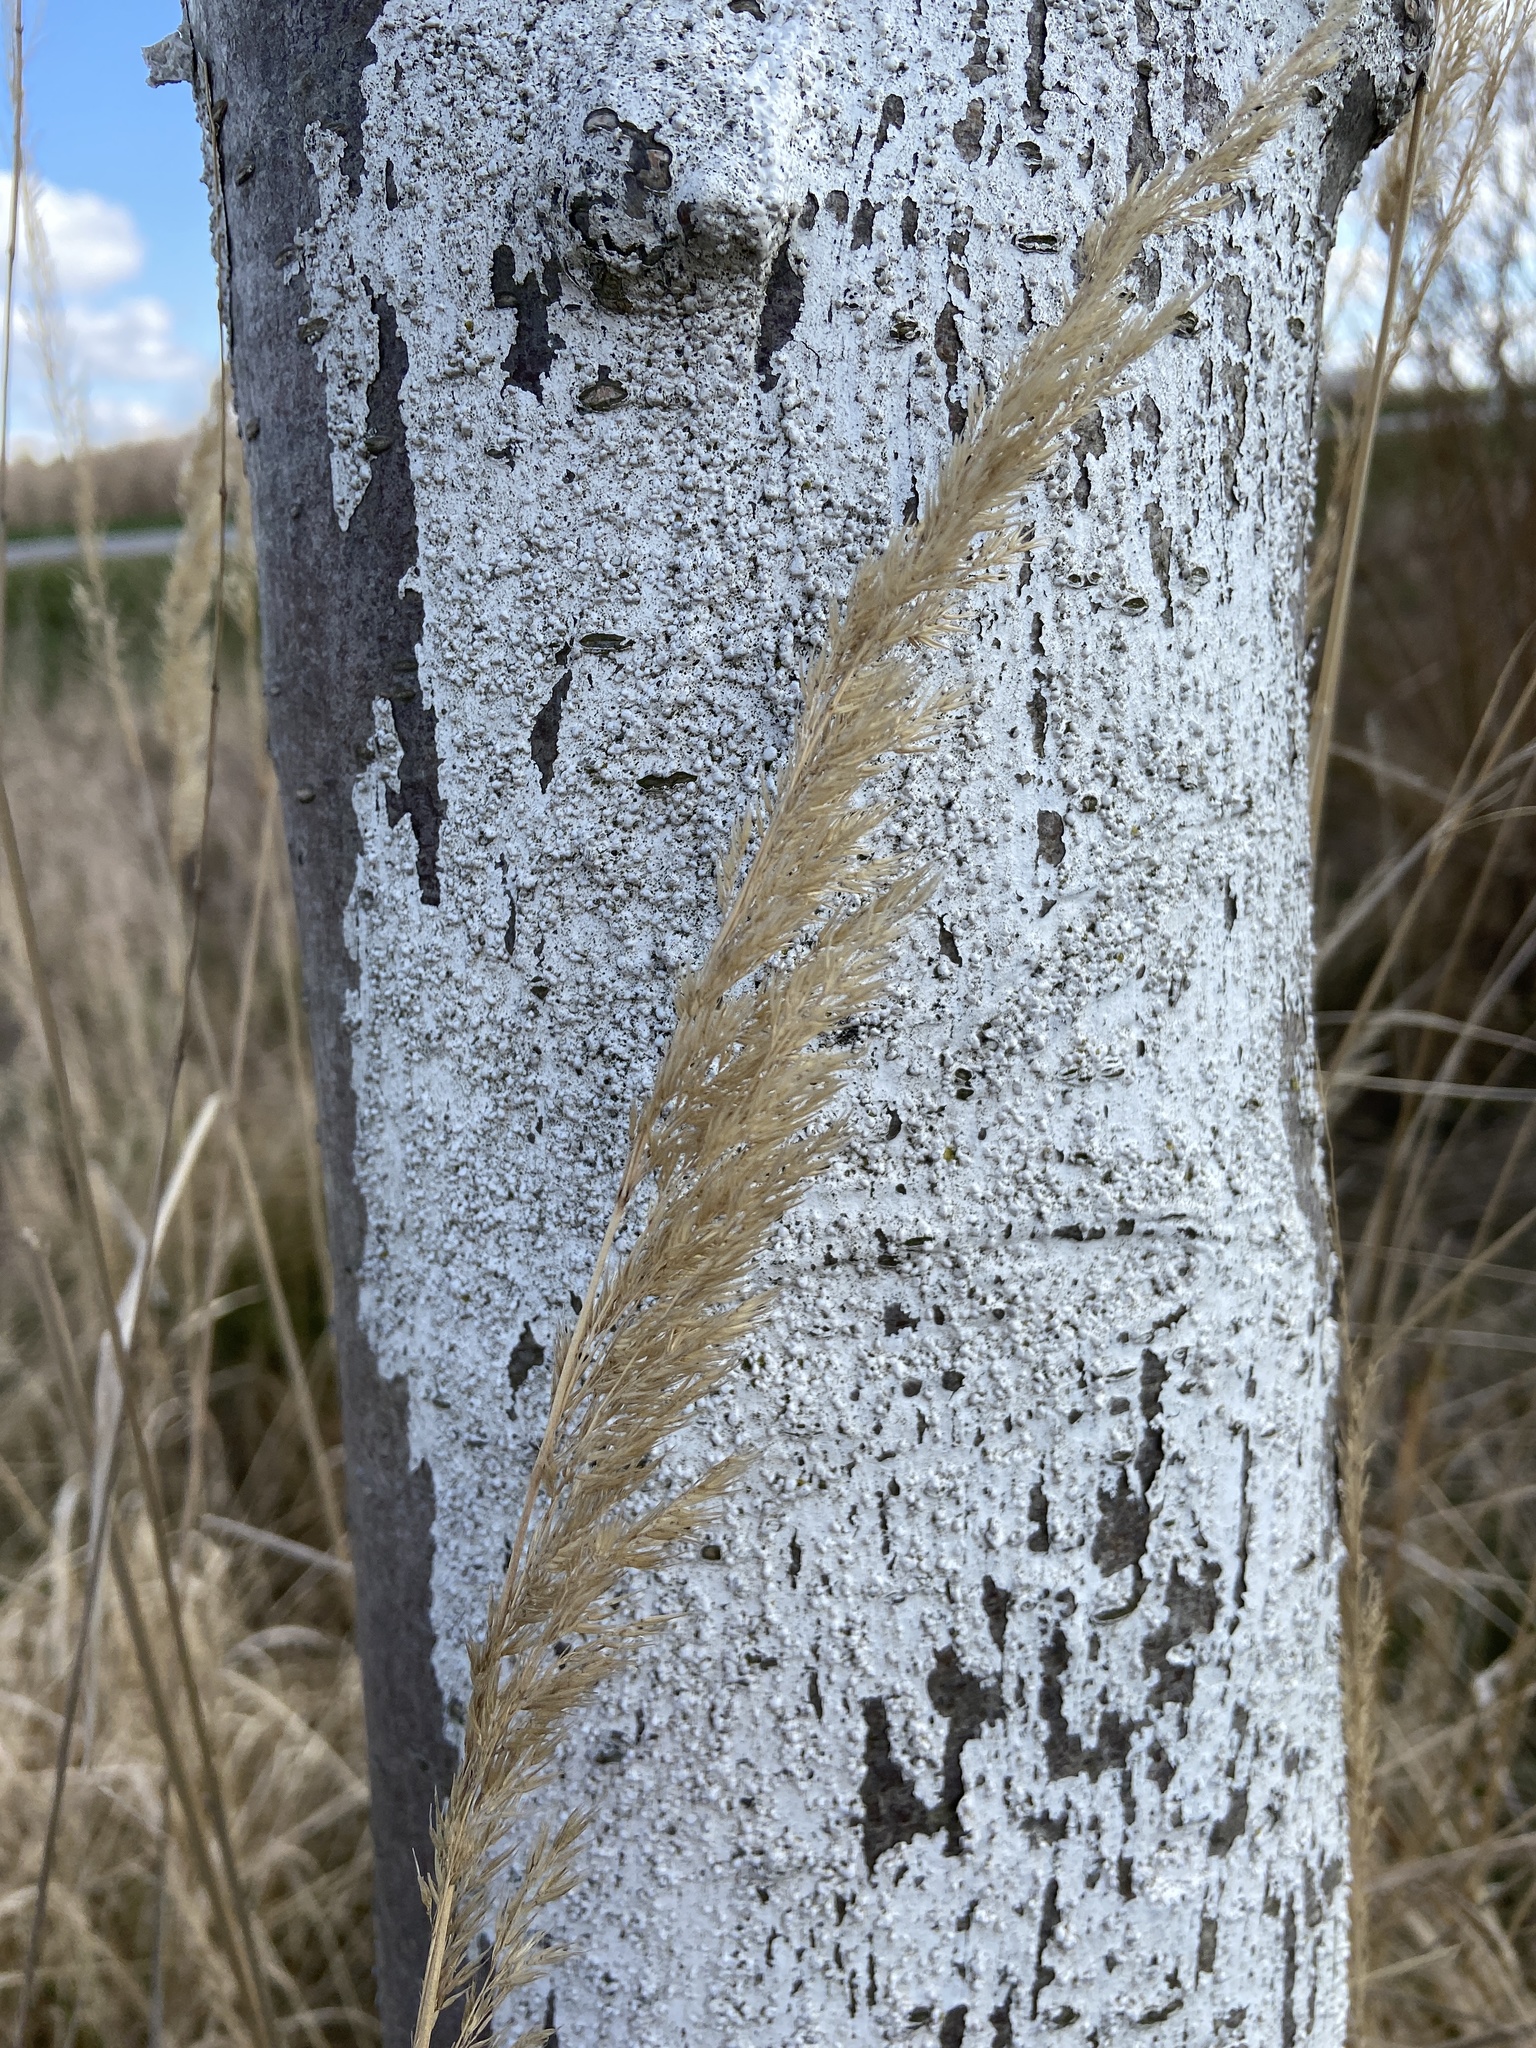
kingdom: Plantae
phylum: Tracheophyta
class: Liliopsida
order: Poales
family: Poaceae
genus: Calamagrostis
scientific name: Calamagrostis epigejos
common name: Wood small-reed
